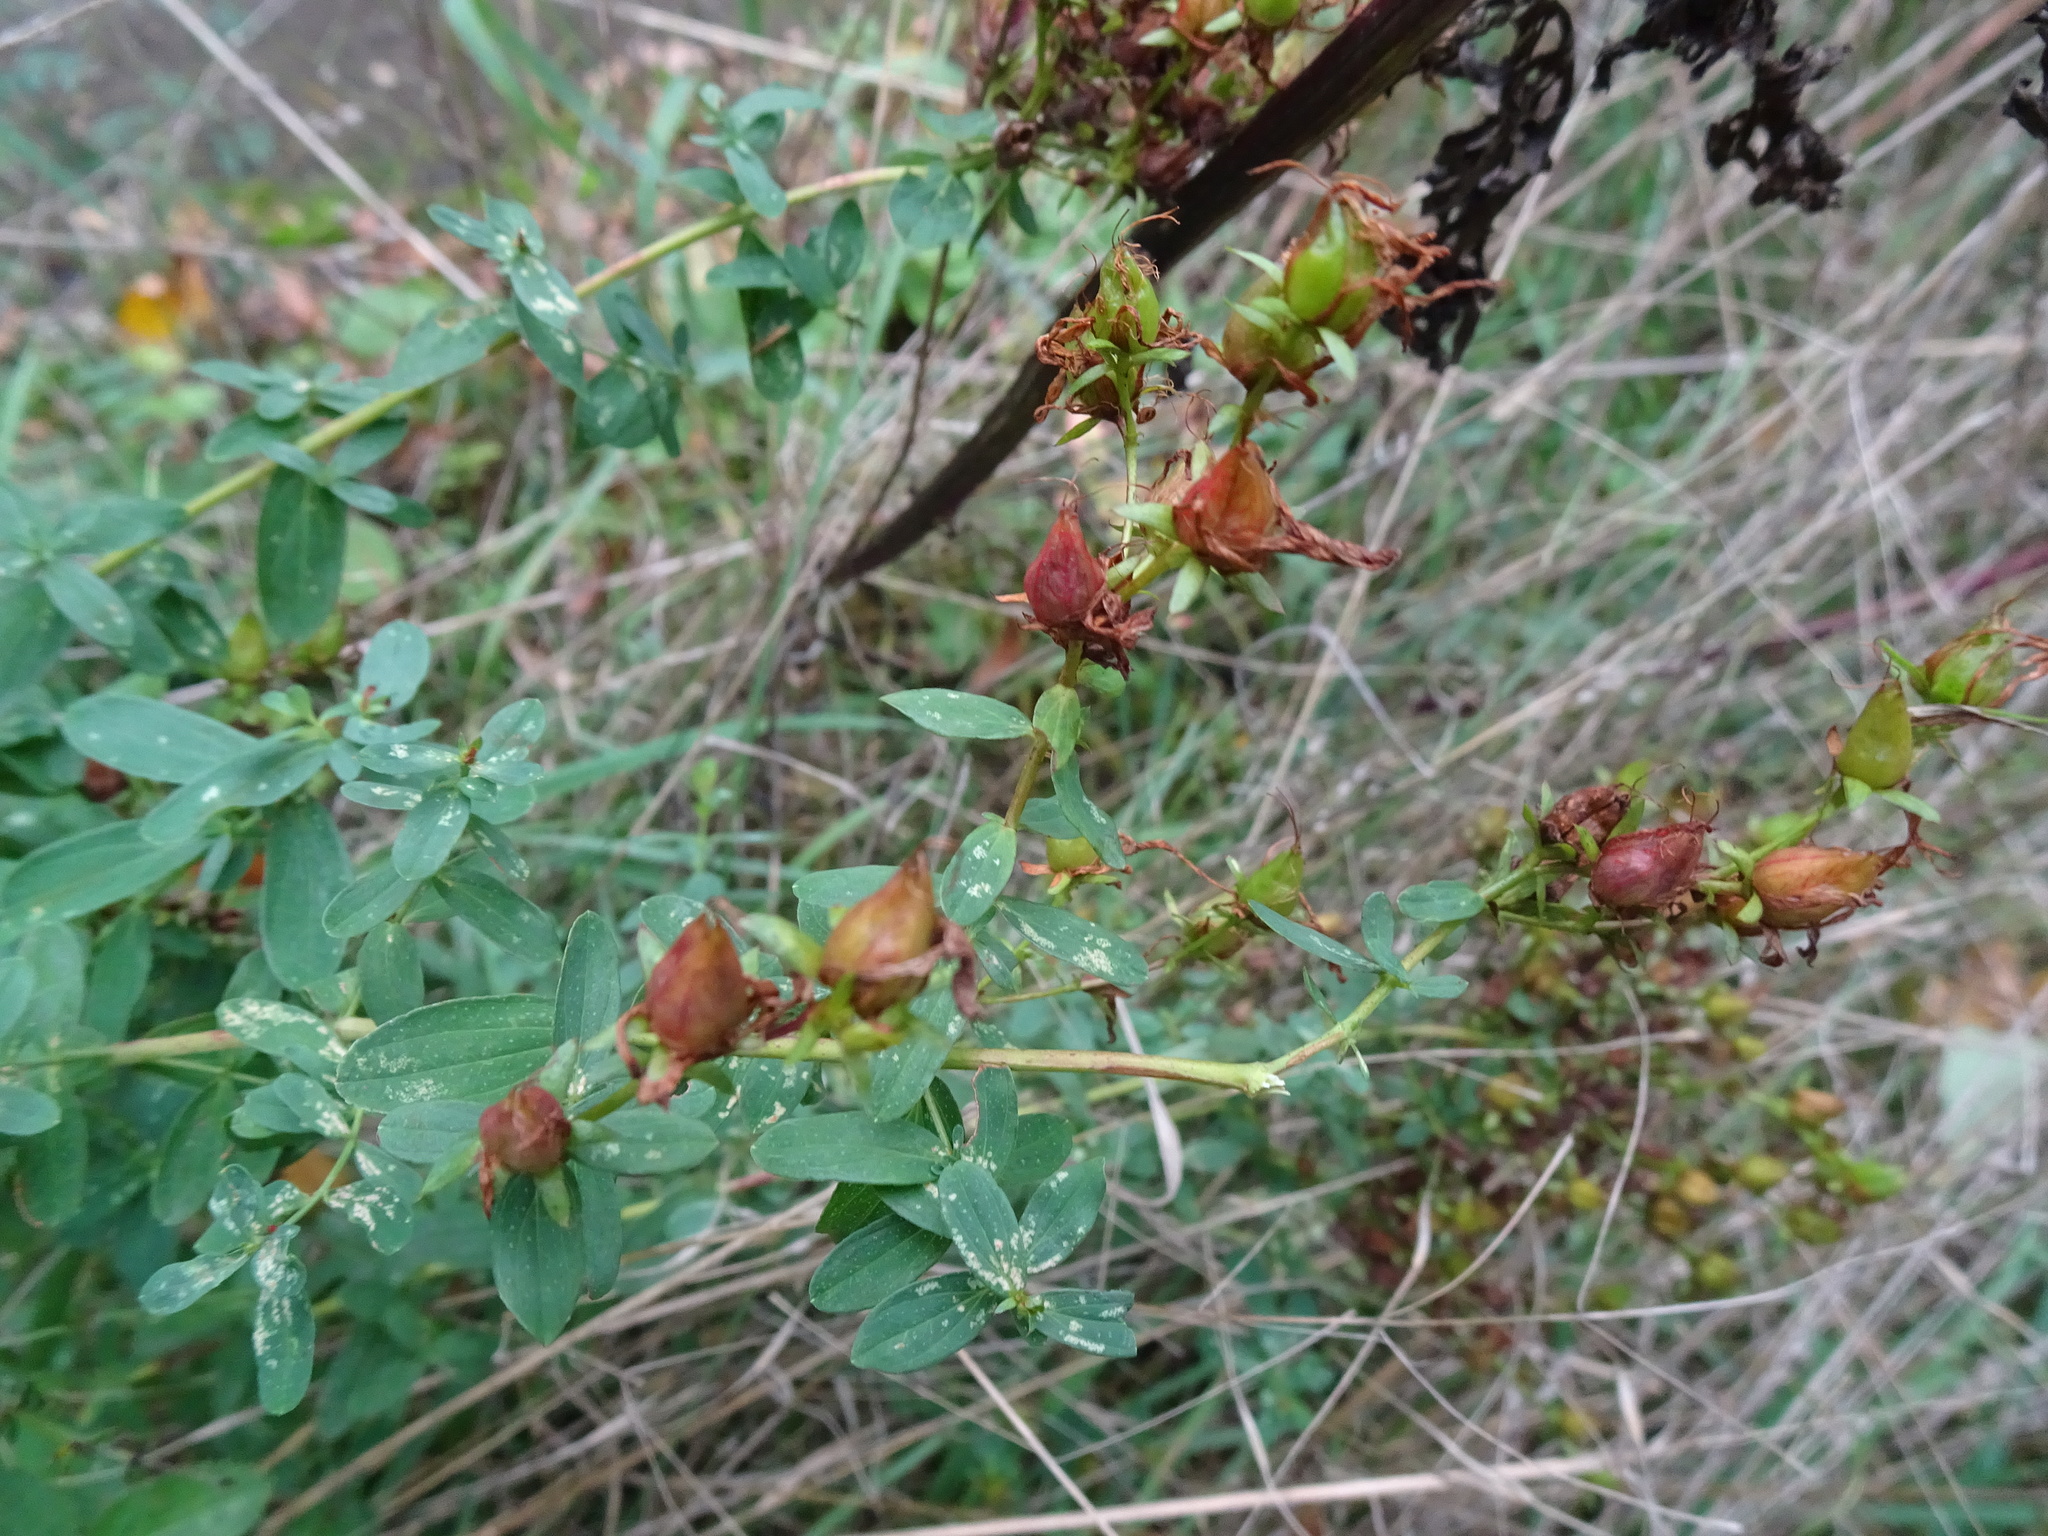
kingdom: Plantae
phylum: Tracheophyta
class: Magnoliopsida
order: Malpighiales
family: Hypericaceae
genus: Hypericum
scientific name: Hypericum desetangsii
